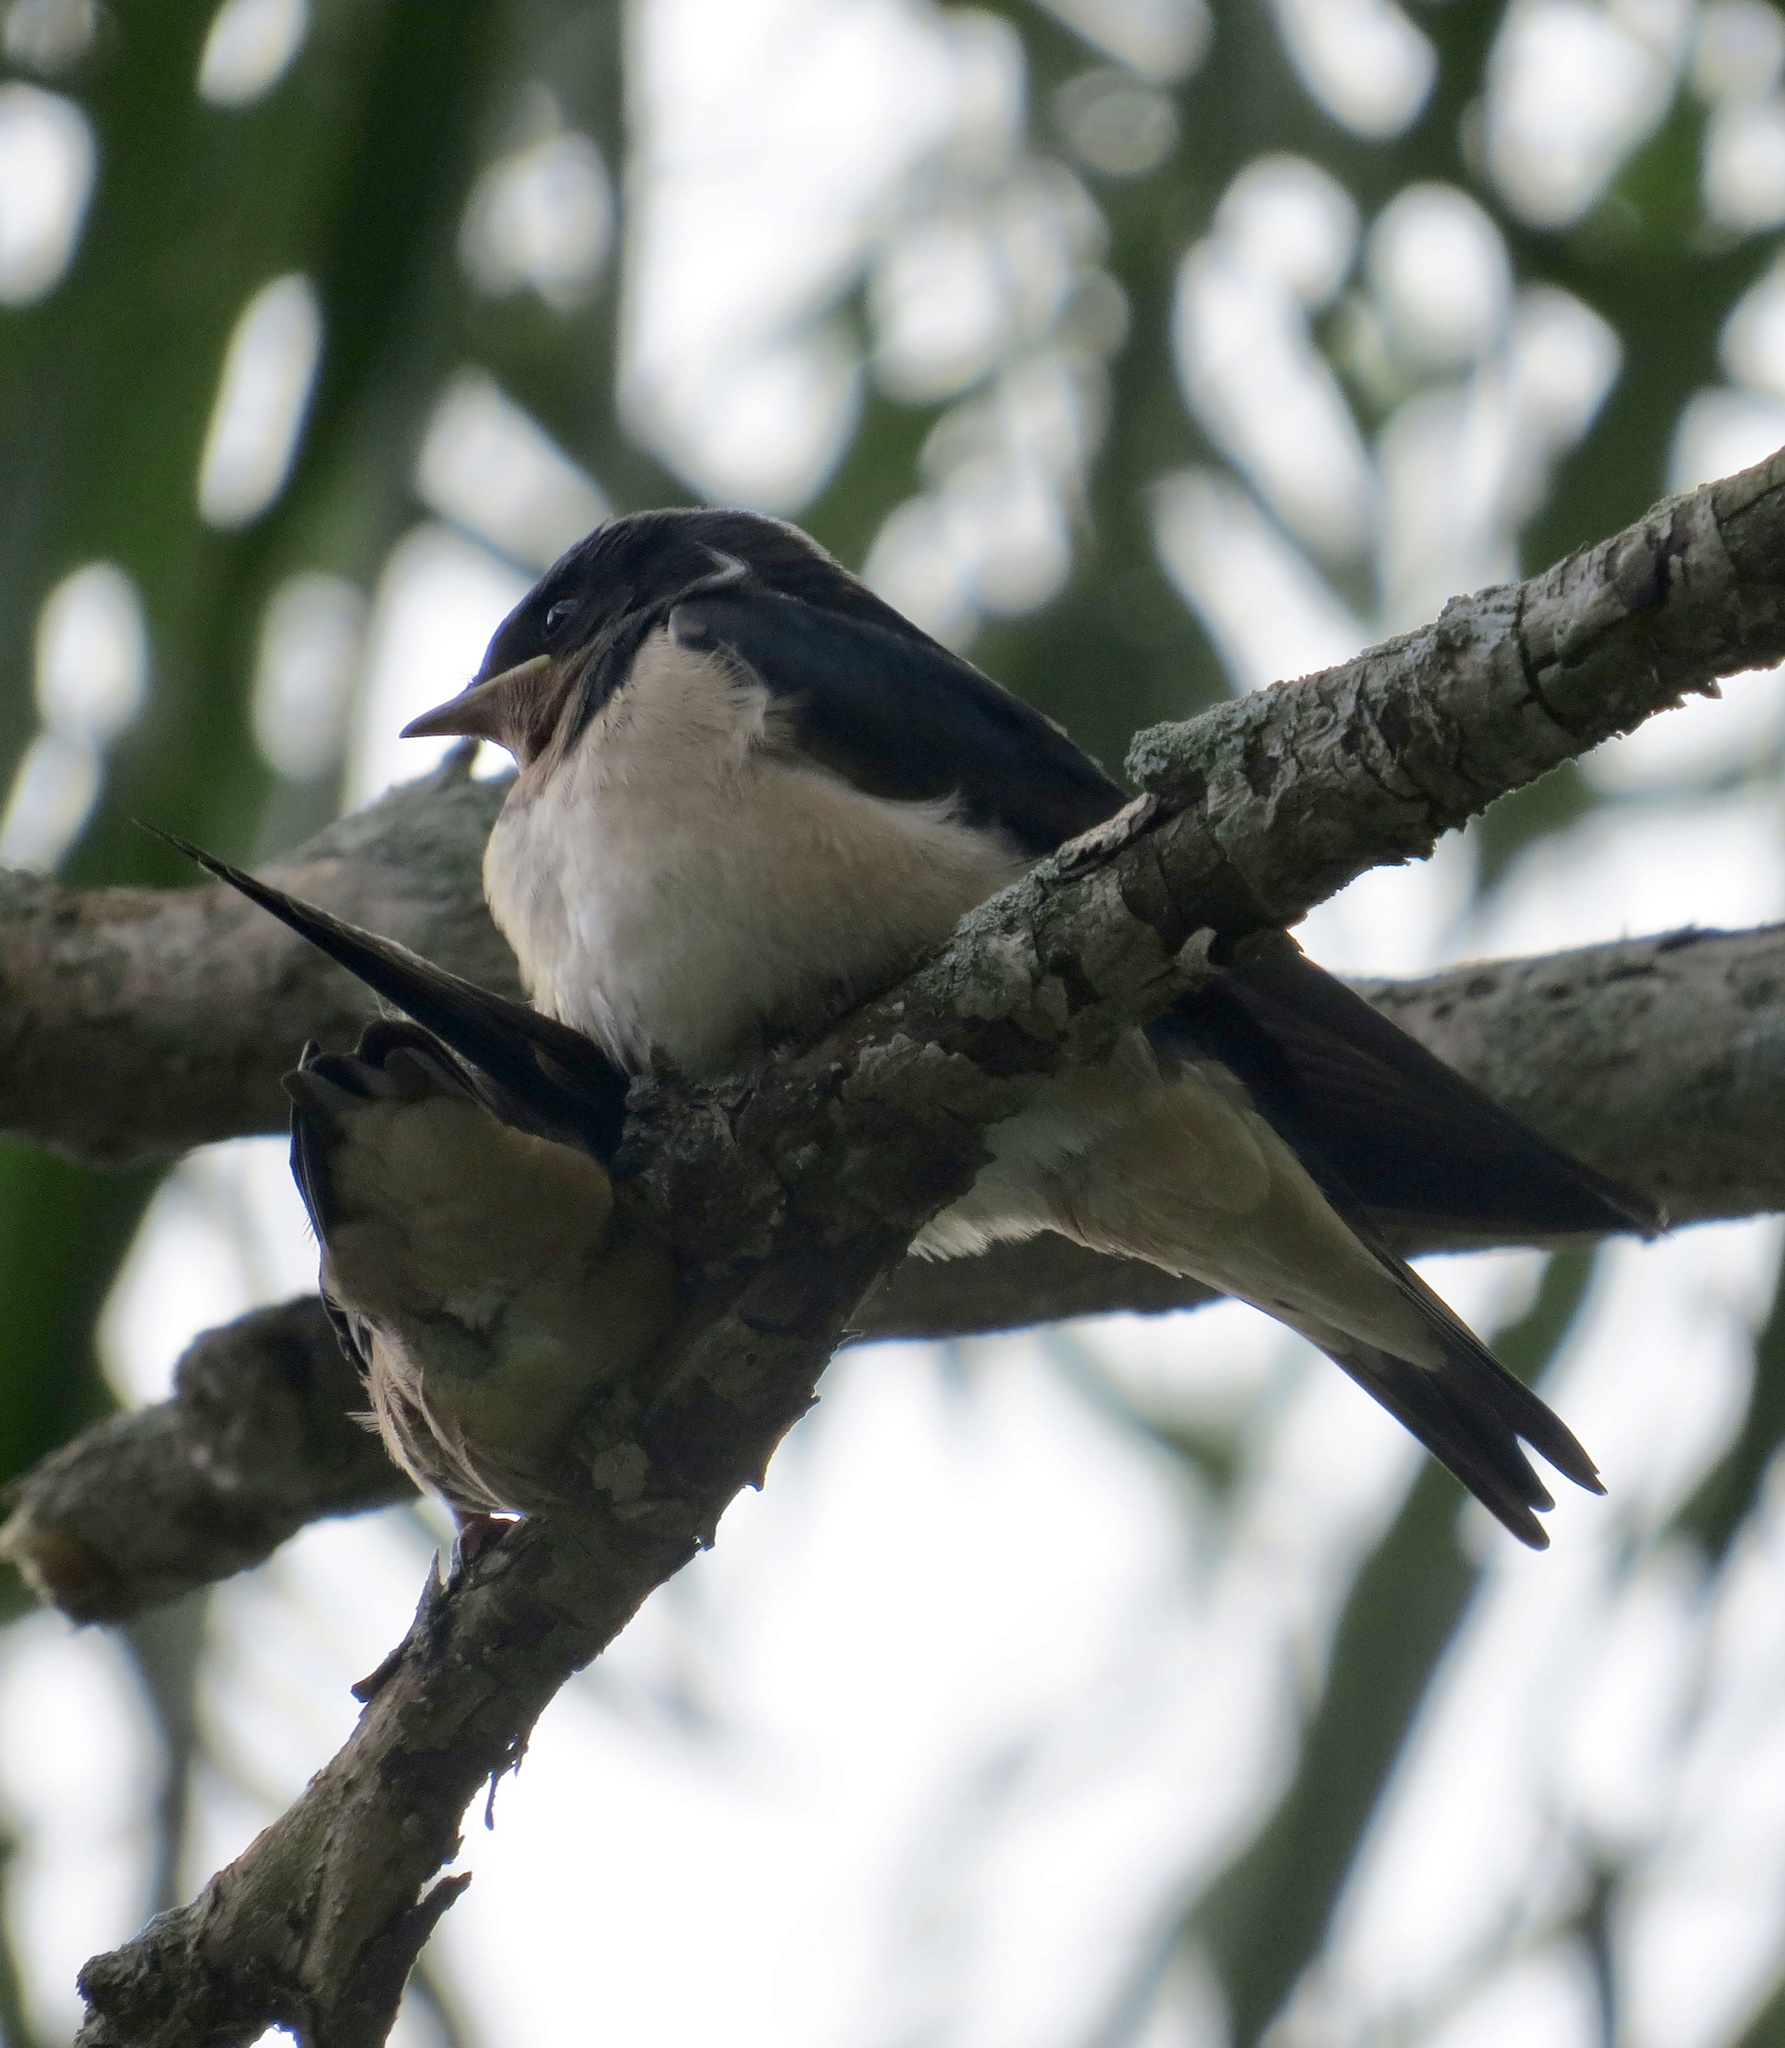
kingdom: Animalia
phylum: Chordata
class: Aves
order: Passeriformes
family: Hirundinidae
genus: Hirundo
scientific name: Hirundo rustica
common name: Barn swallow
